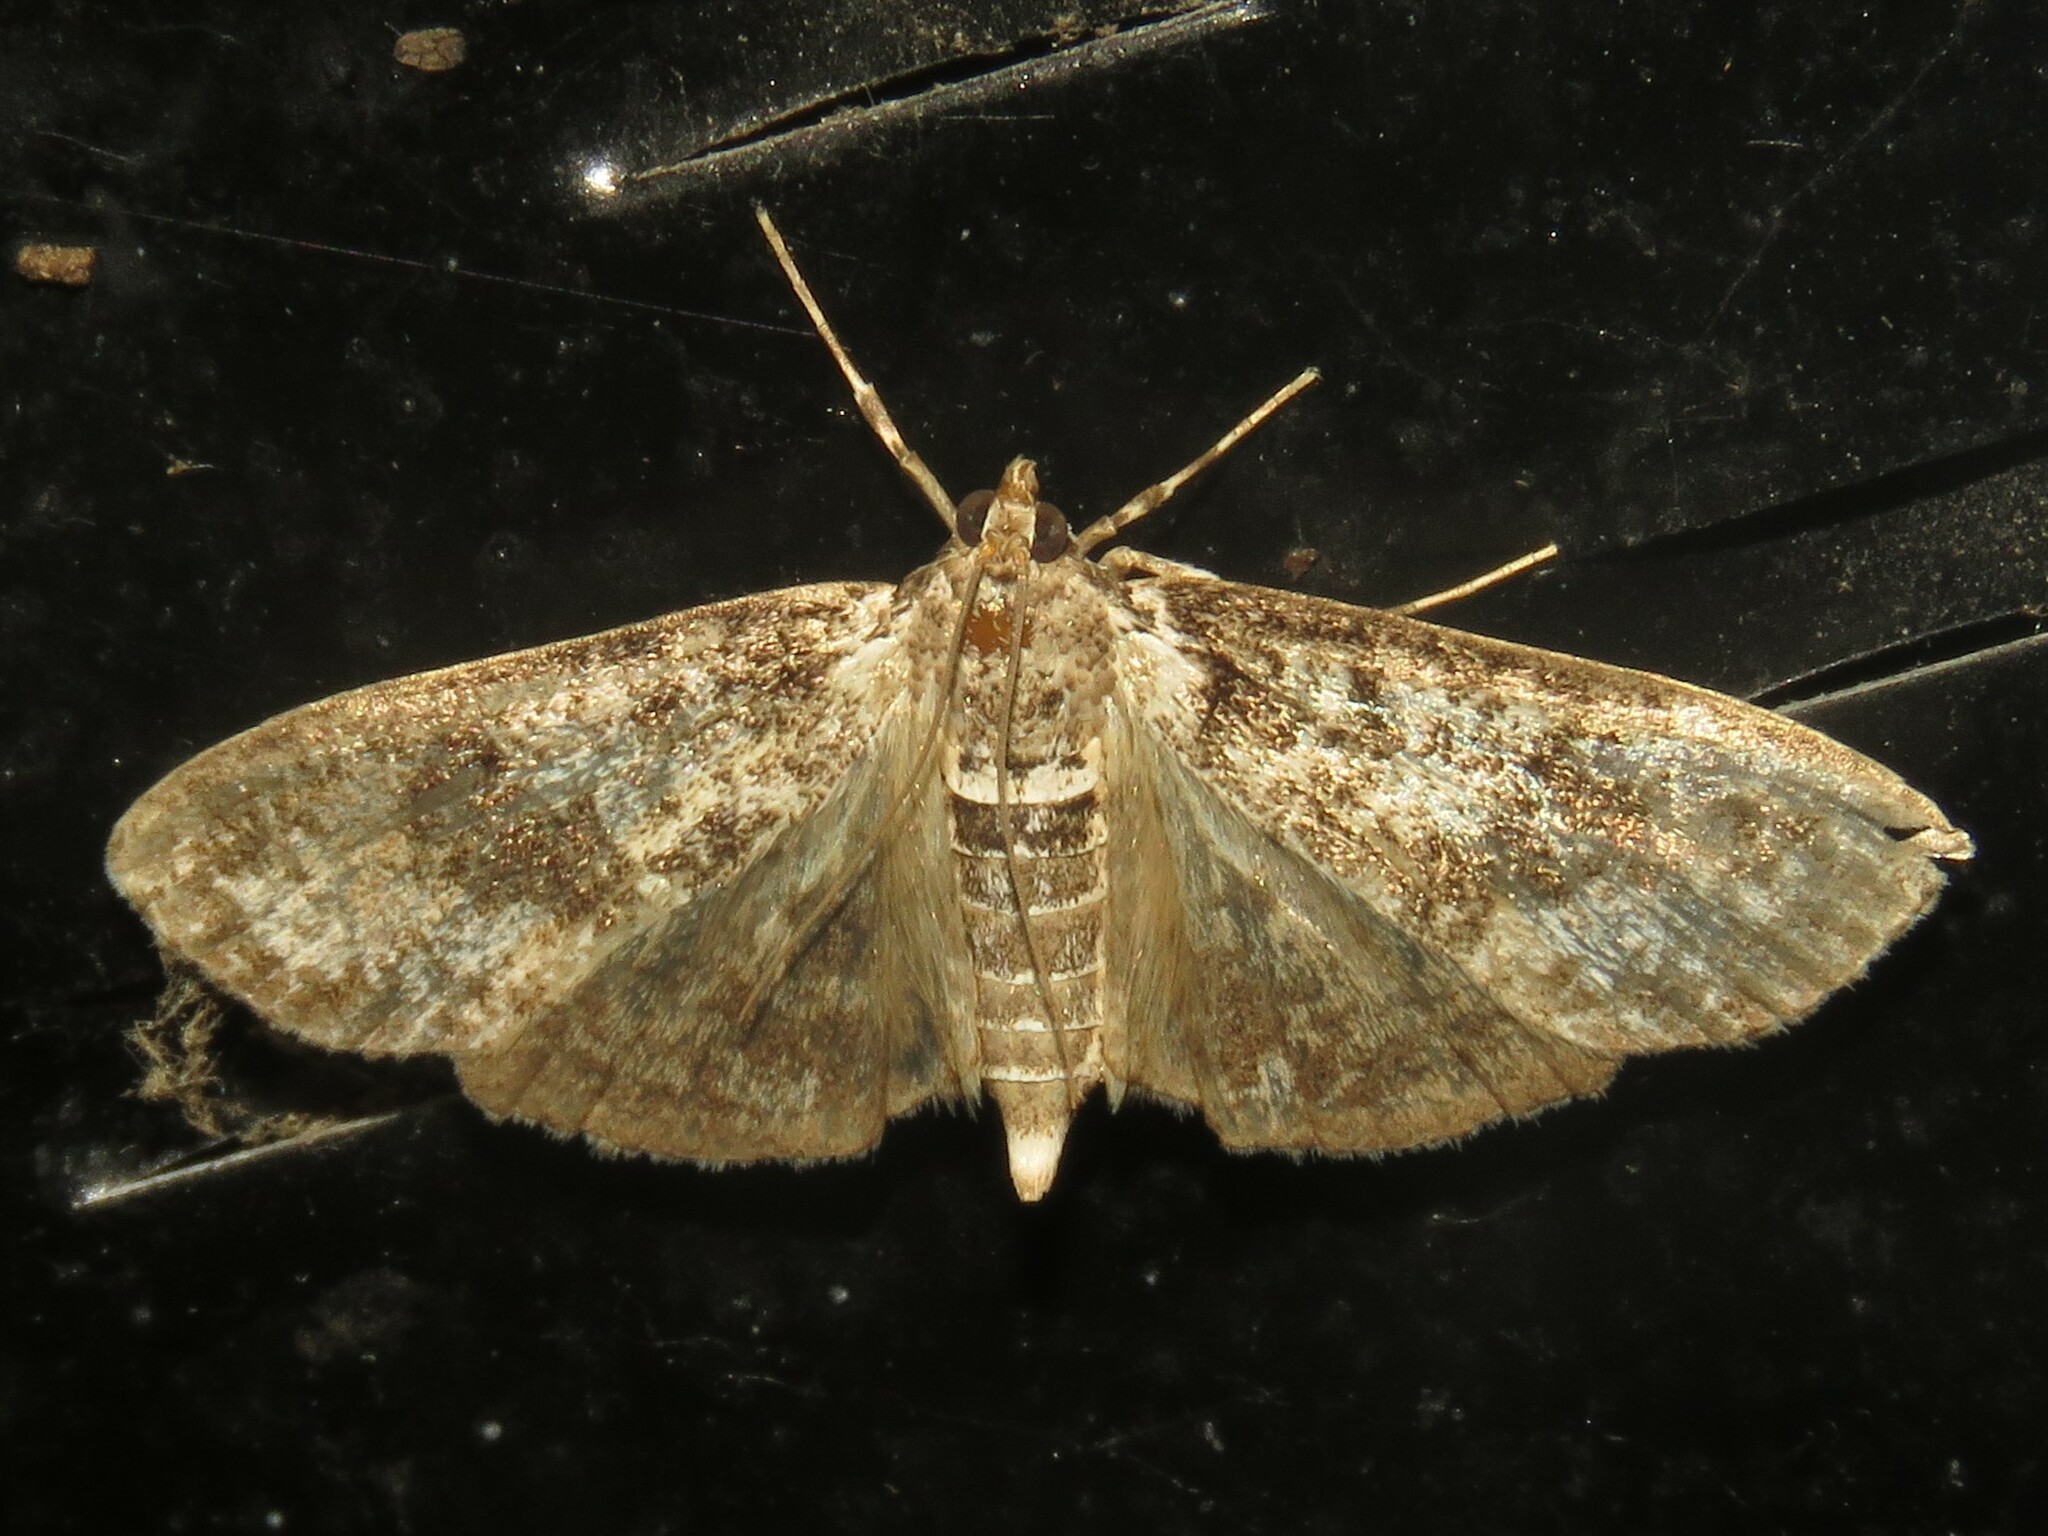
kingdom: Animalia
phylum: Arthropoda
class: Insecta
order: Lepidoptera
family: Crambidae
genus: Palpita
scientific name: Palpita magniferalis
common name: Splendid palpita moth
